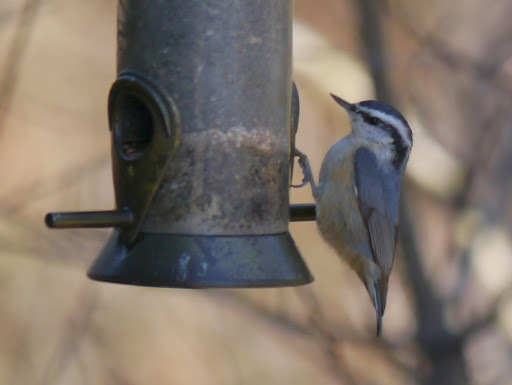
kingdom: Animalia
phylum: Chordata
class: Aves
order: Passeriformes
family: Sittidae
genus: Sitta
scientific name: Sitta canadensis
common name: Red-breasted nuthatch
